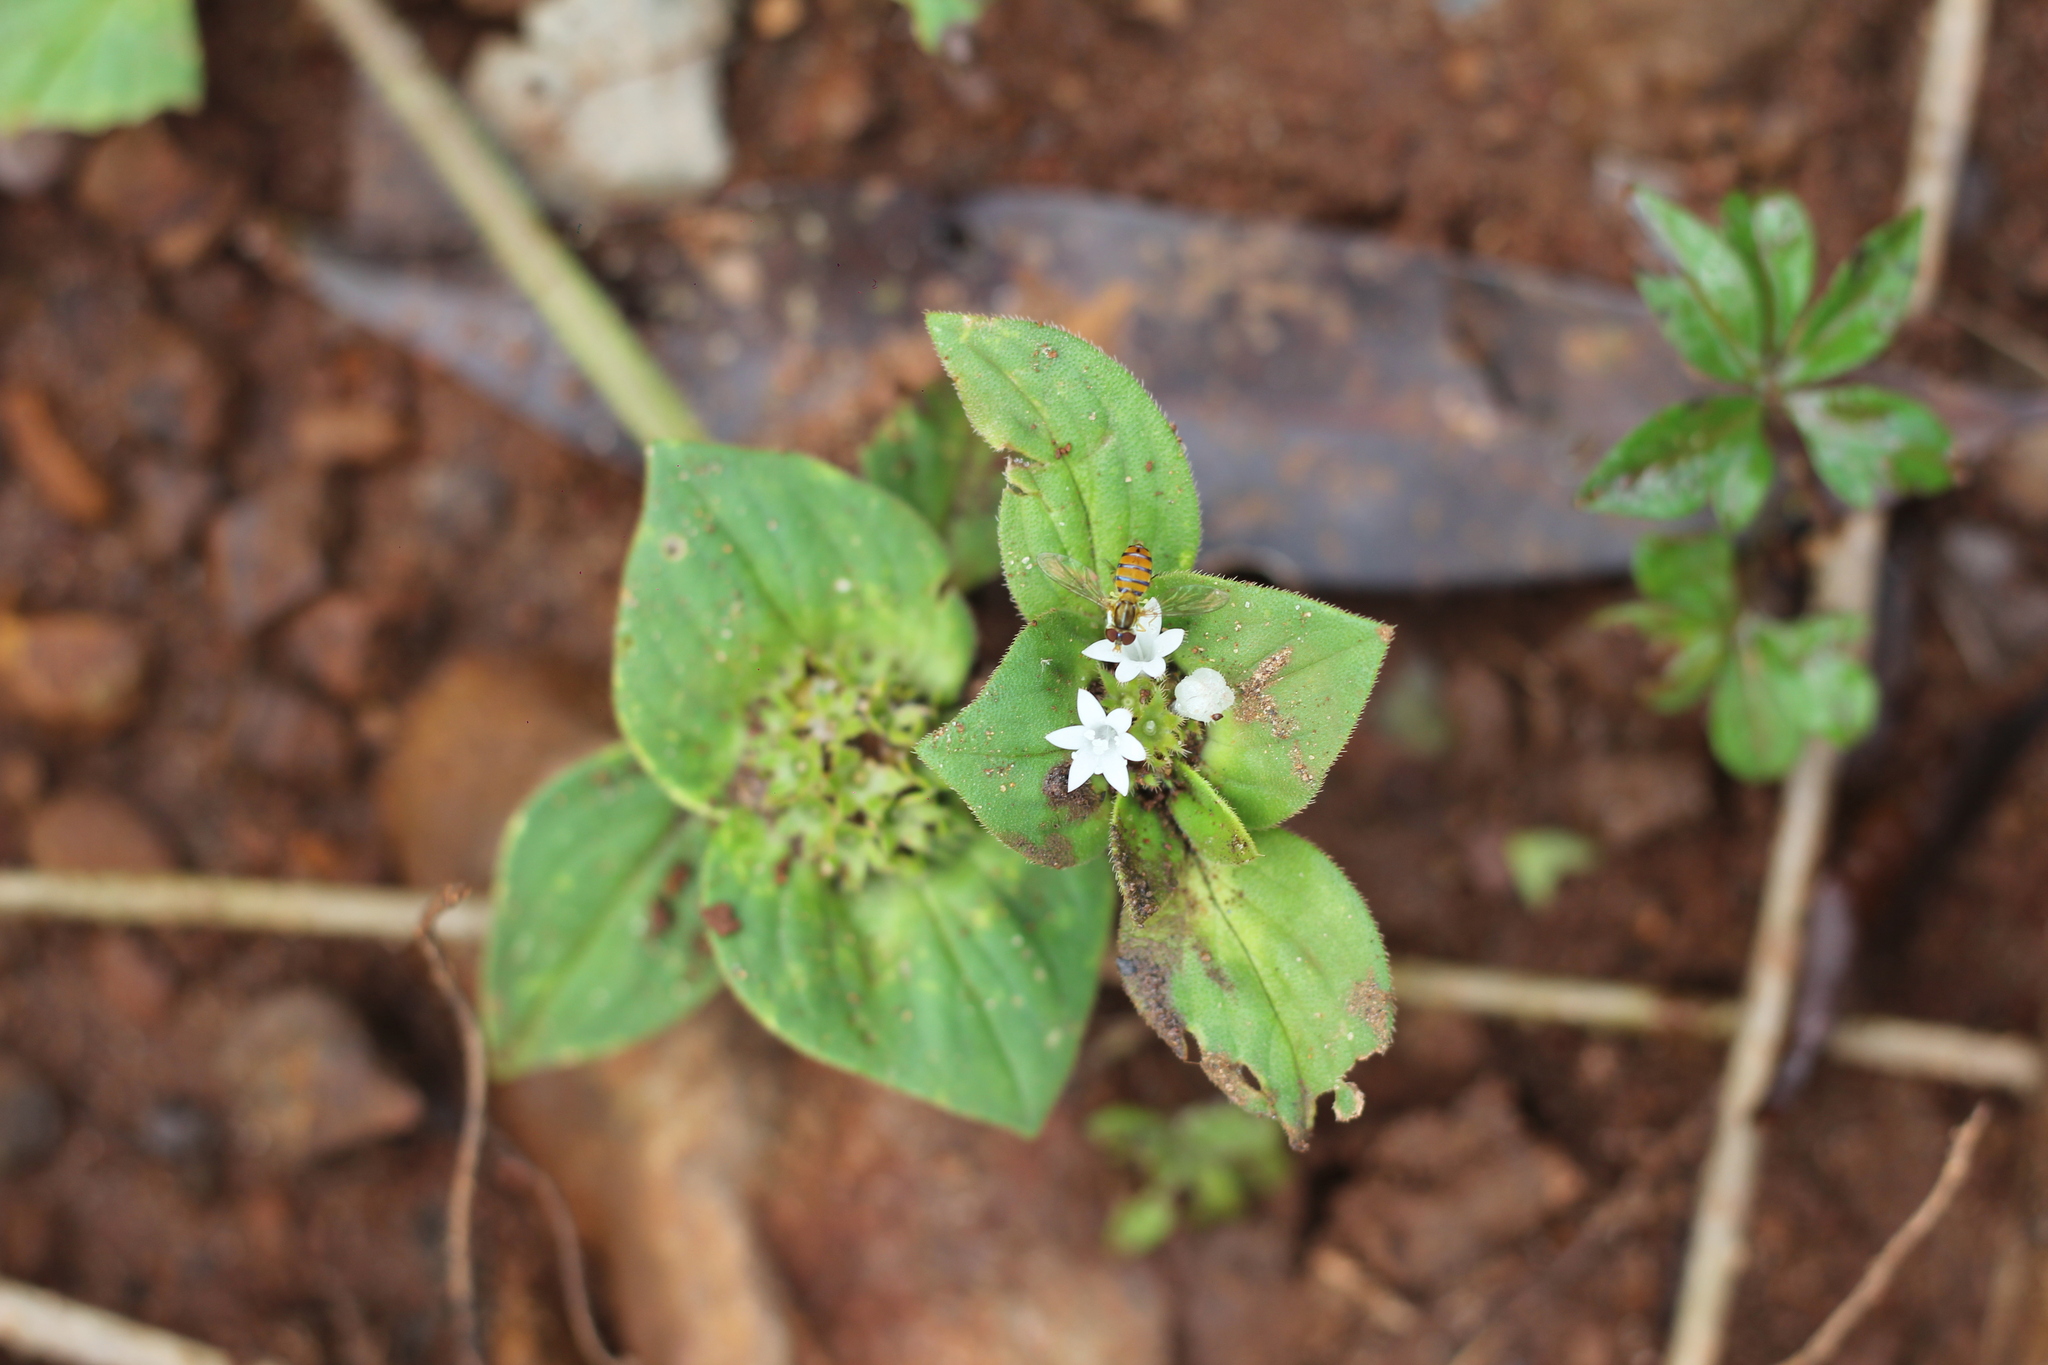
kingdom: Plantae
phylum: Tracheophyta
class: Magnoliopsida
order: Gentianales
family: Rubiaceae
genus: Richardia
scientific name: Richardia brasiliensis
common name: Tropical mexican clover
